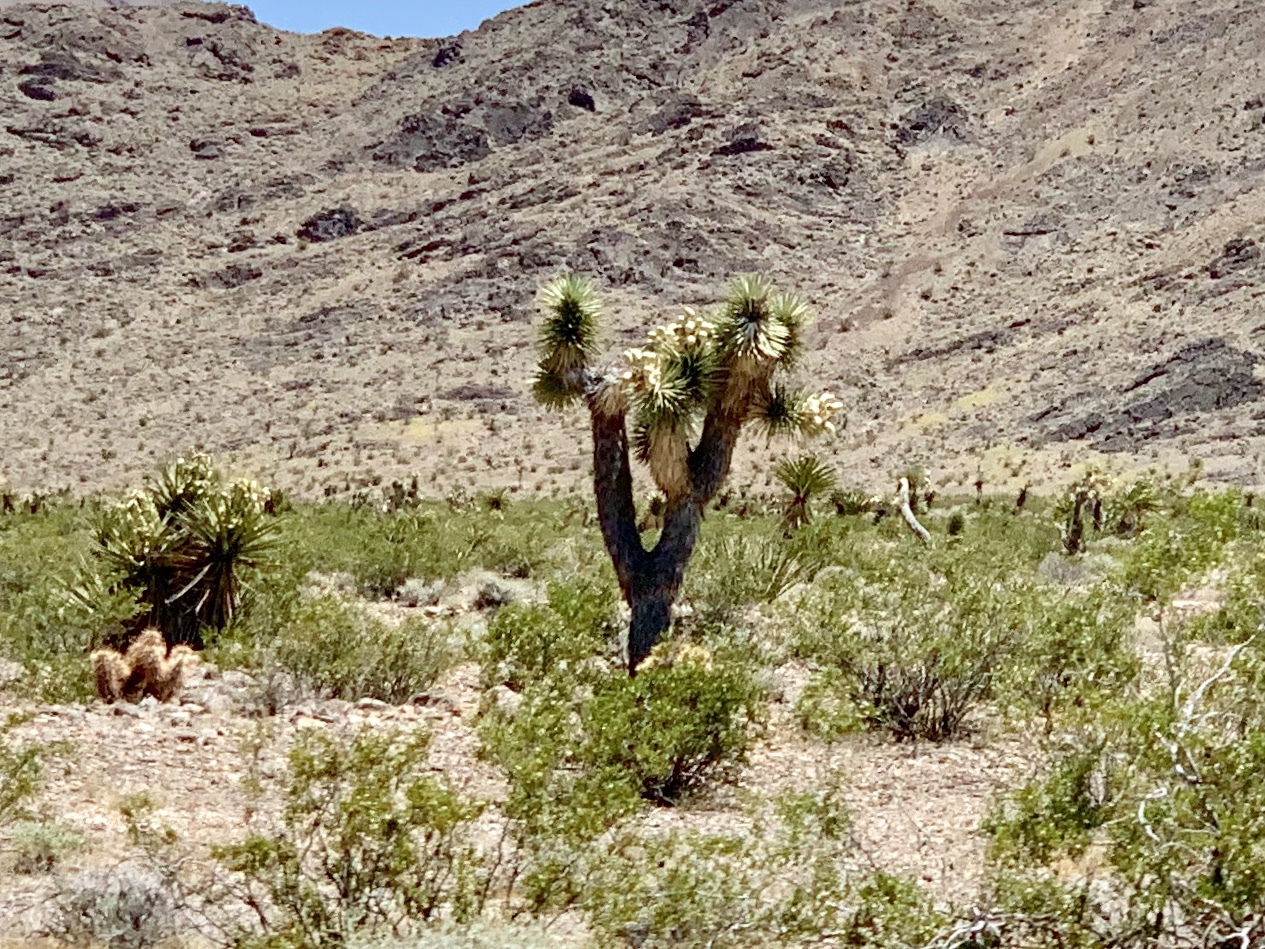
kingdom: Plantae
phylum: Tracheophyta
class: Liliopsida
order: Asparagales
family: Asparagaceae
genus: Yucca
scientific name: Yucca brevifolia
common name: Joshua tree
